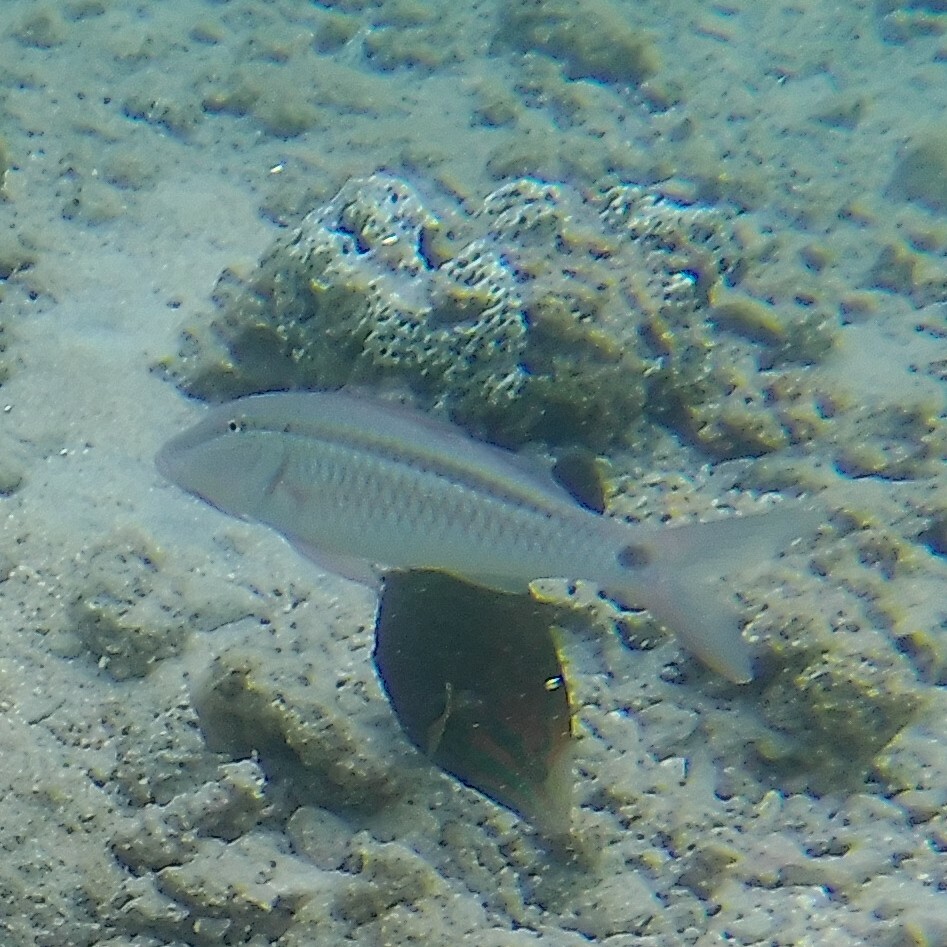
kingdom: Animalia
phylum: Chordata
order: Perciformes
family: Mullidae
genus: Parupeneus
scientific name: Parupeneus barberinus
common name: Dash-and-dot goatfish
